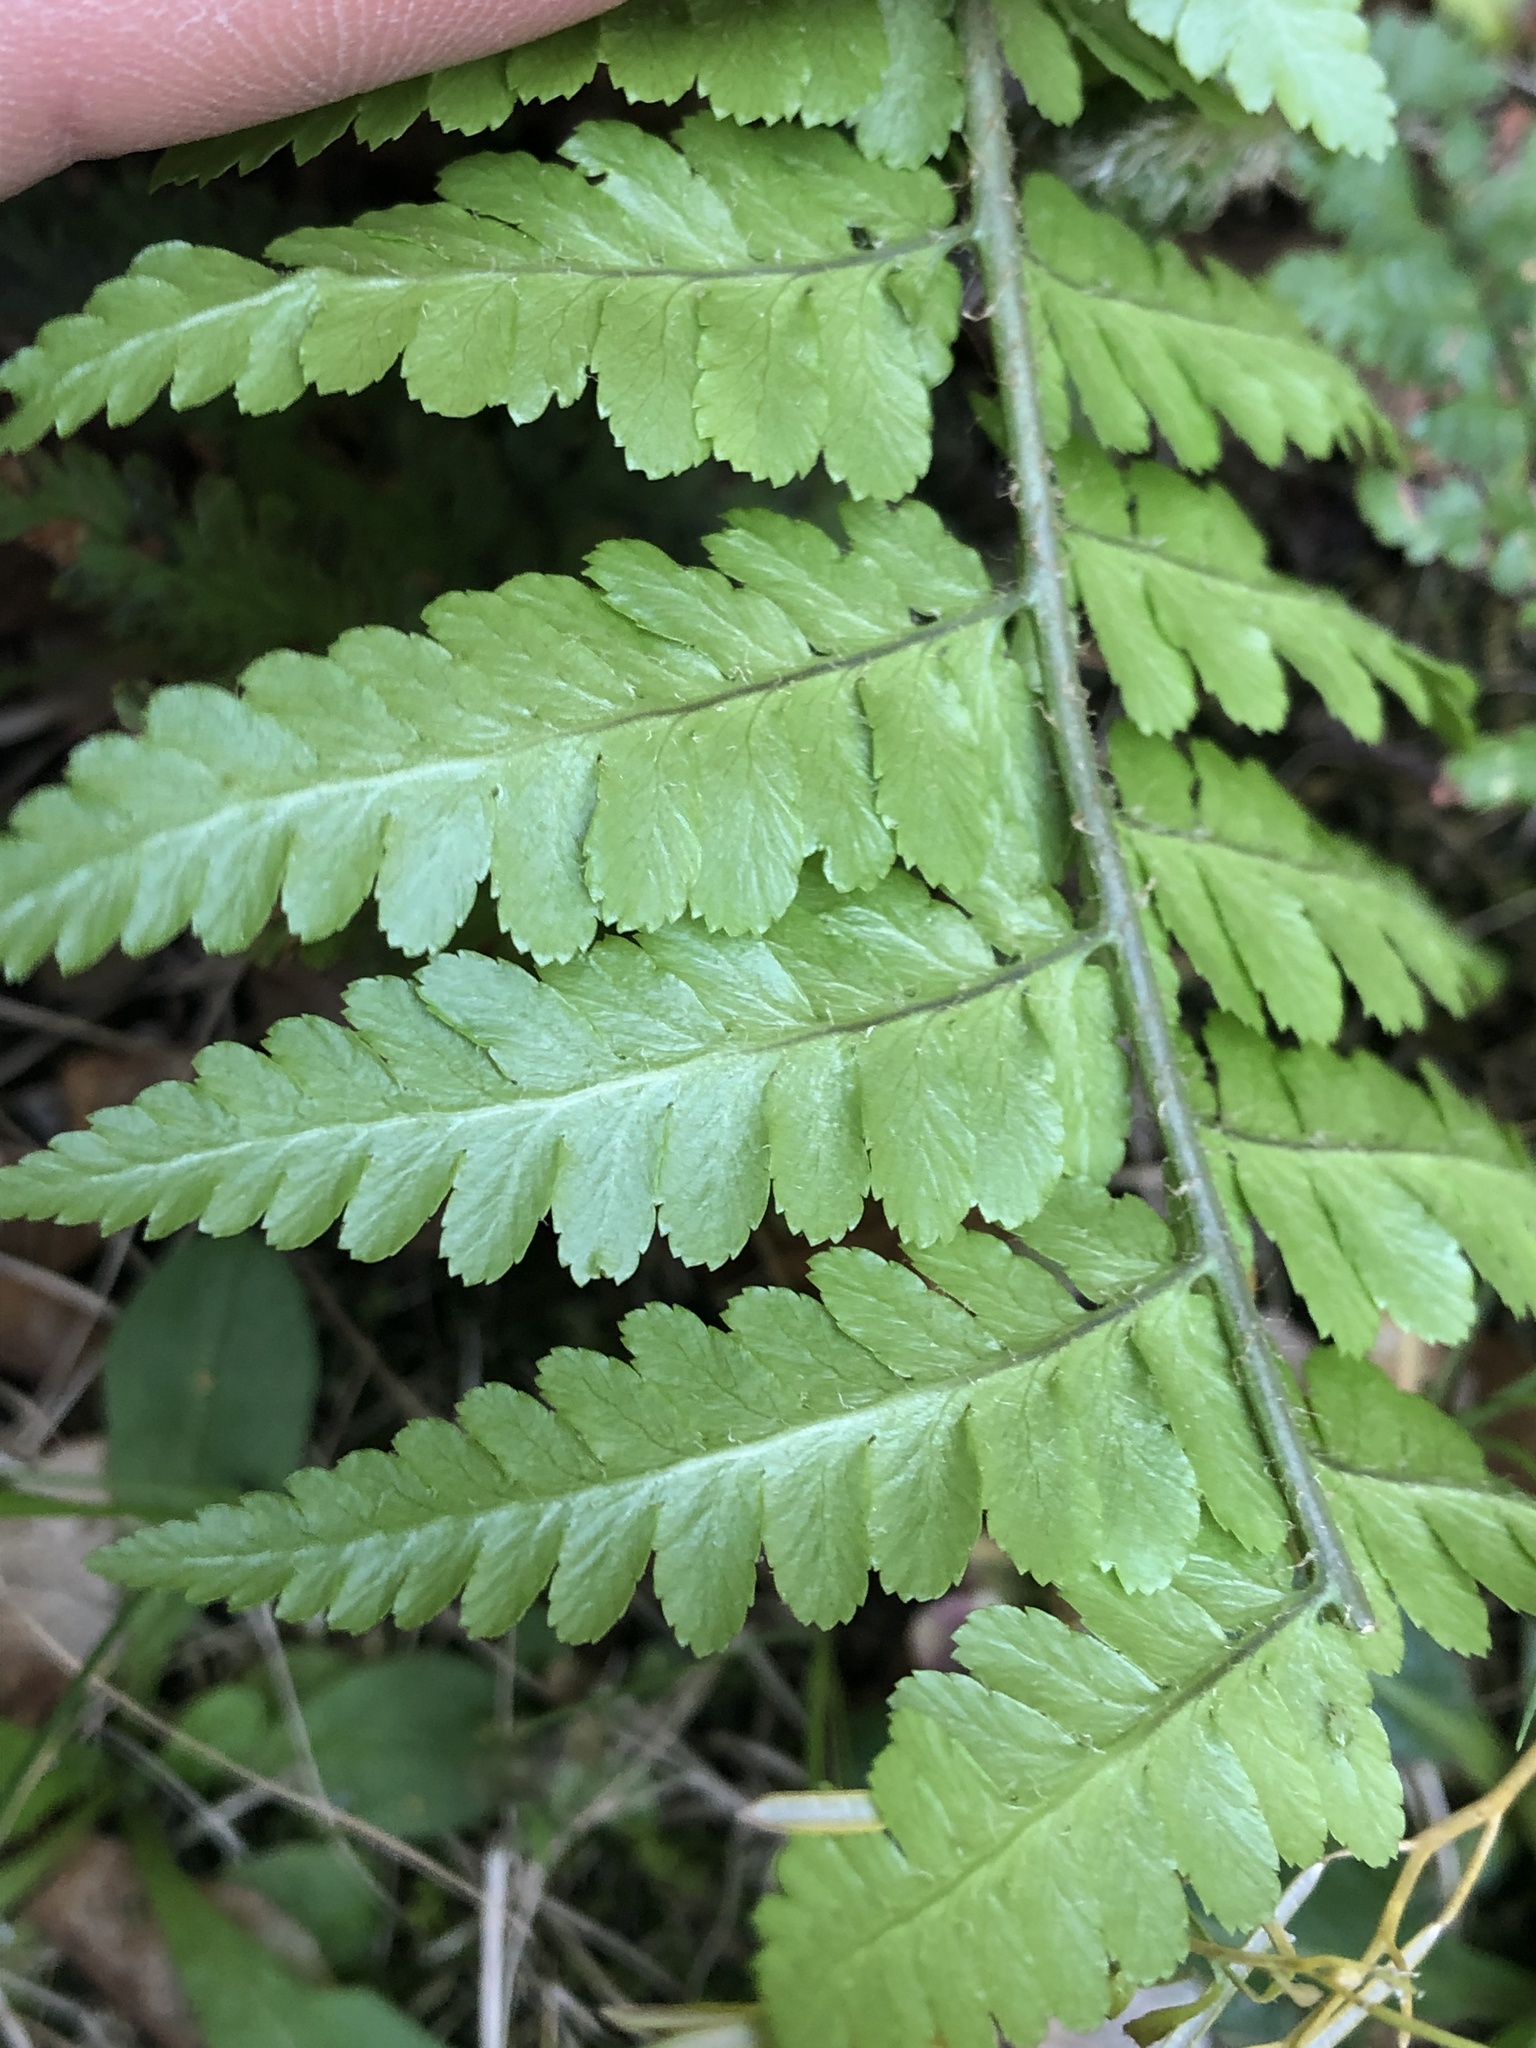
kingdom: Plantae
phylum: Tracheophyta
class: Polypodiopsida
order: Polypodiales
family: Dryopteridaceae
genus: Dryopteris
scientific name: Dryopteris filix-mas
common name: Male fern
